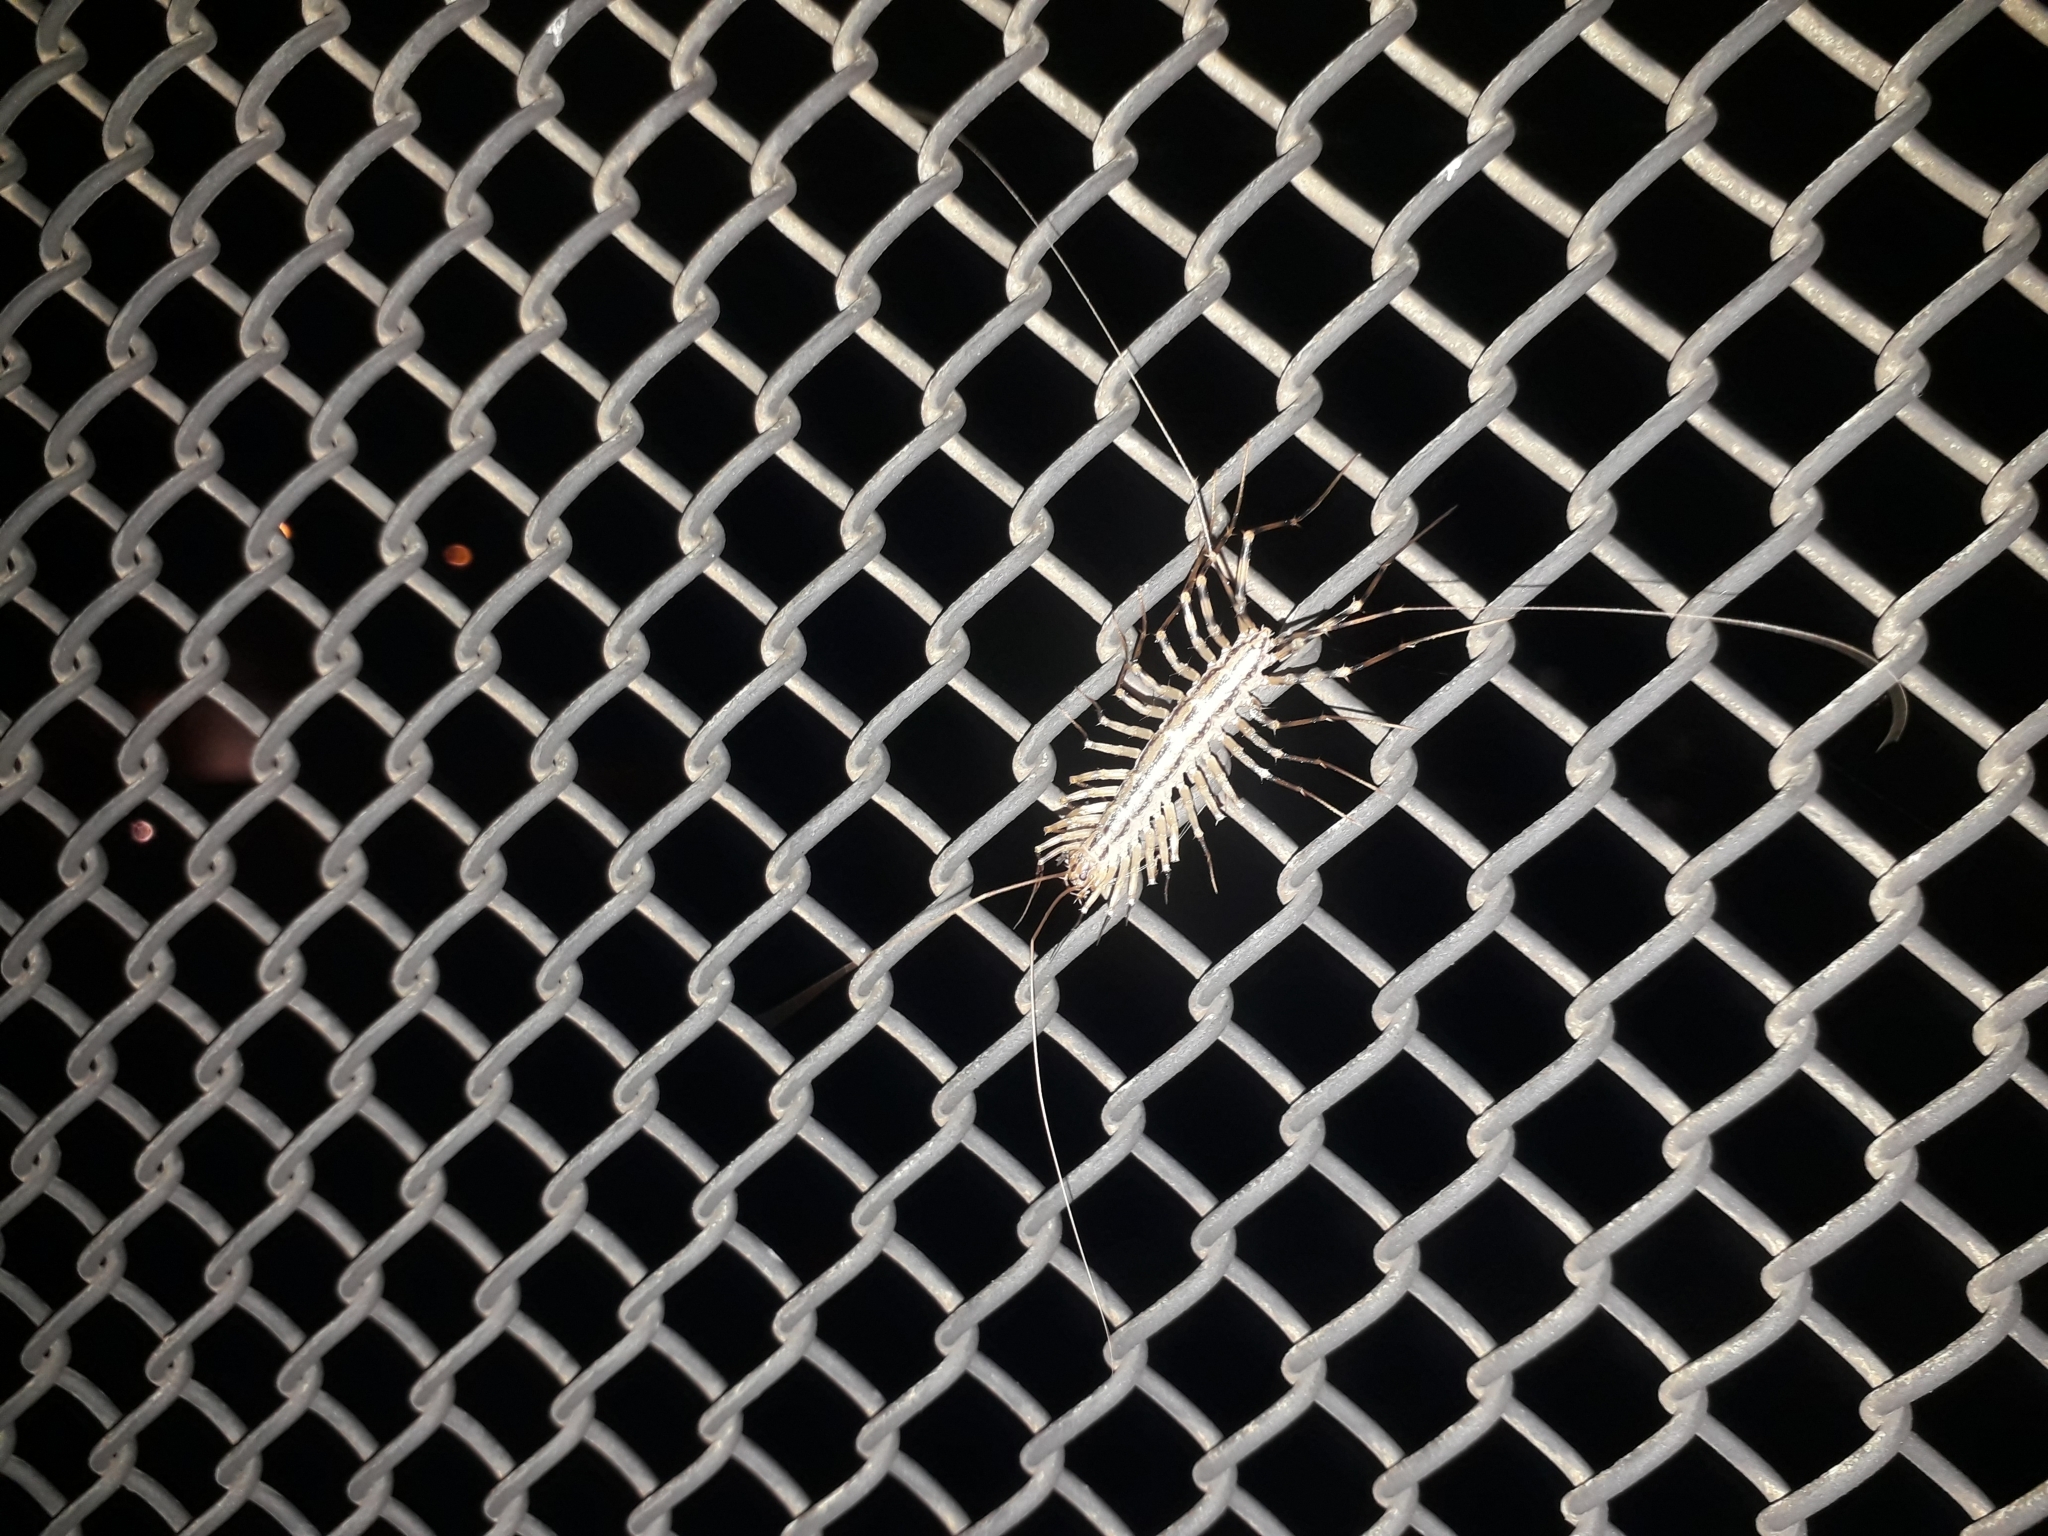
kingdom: Animalia
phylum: Arthropoda
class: Chilopoda
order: Scutigeromorpha
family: Scutigeridae
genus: Scutigera
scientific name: Scutigera coleoptrata
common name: House centipede
